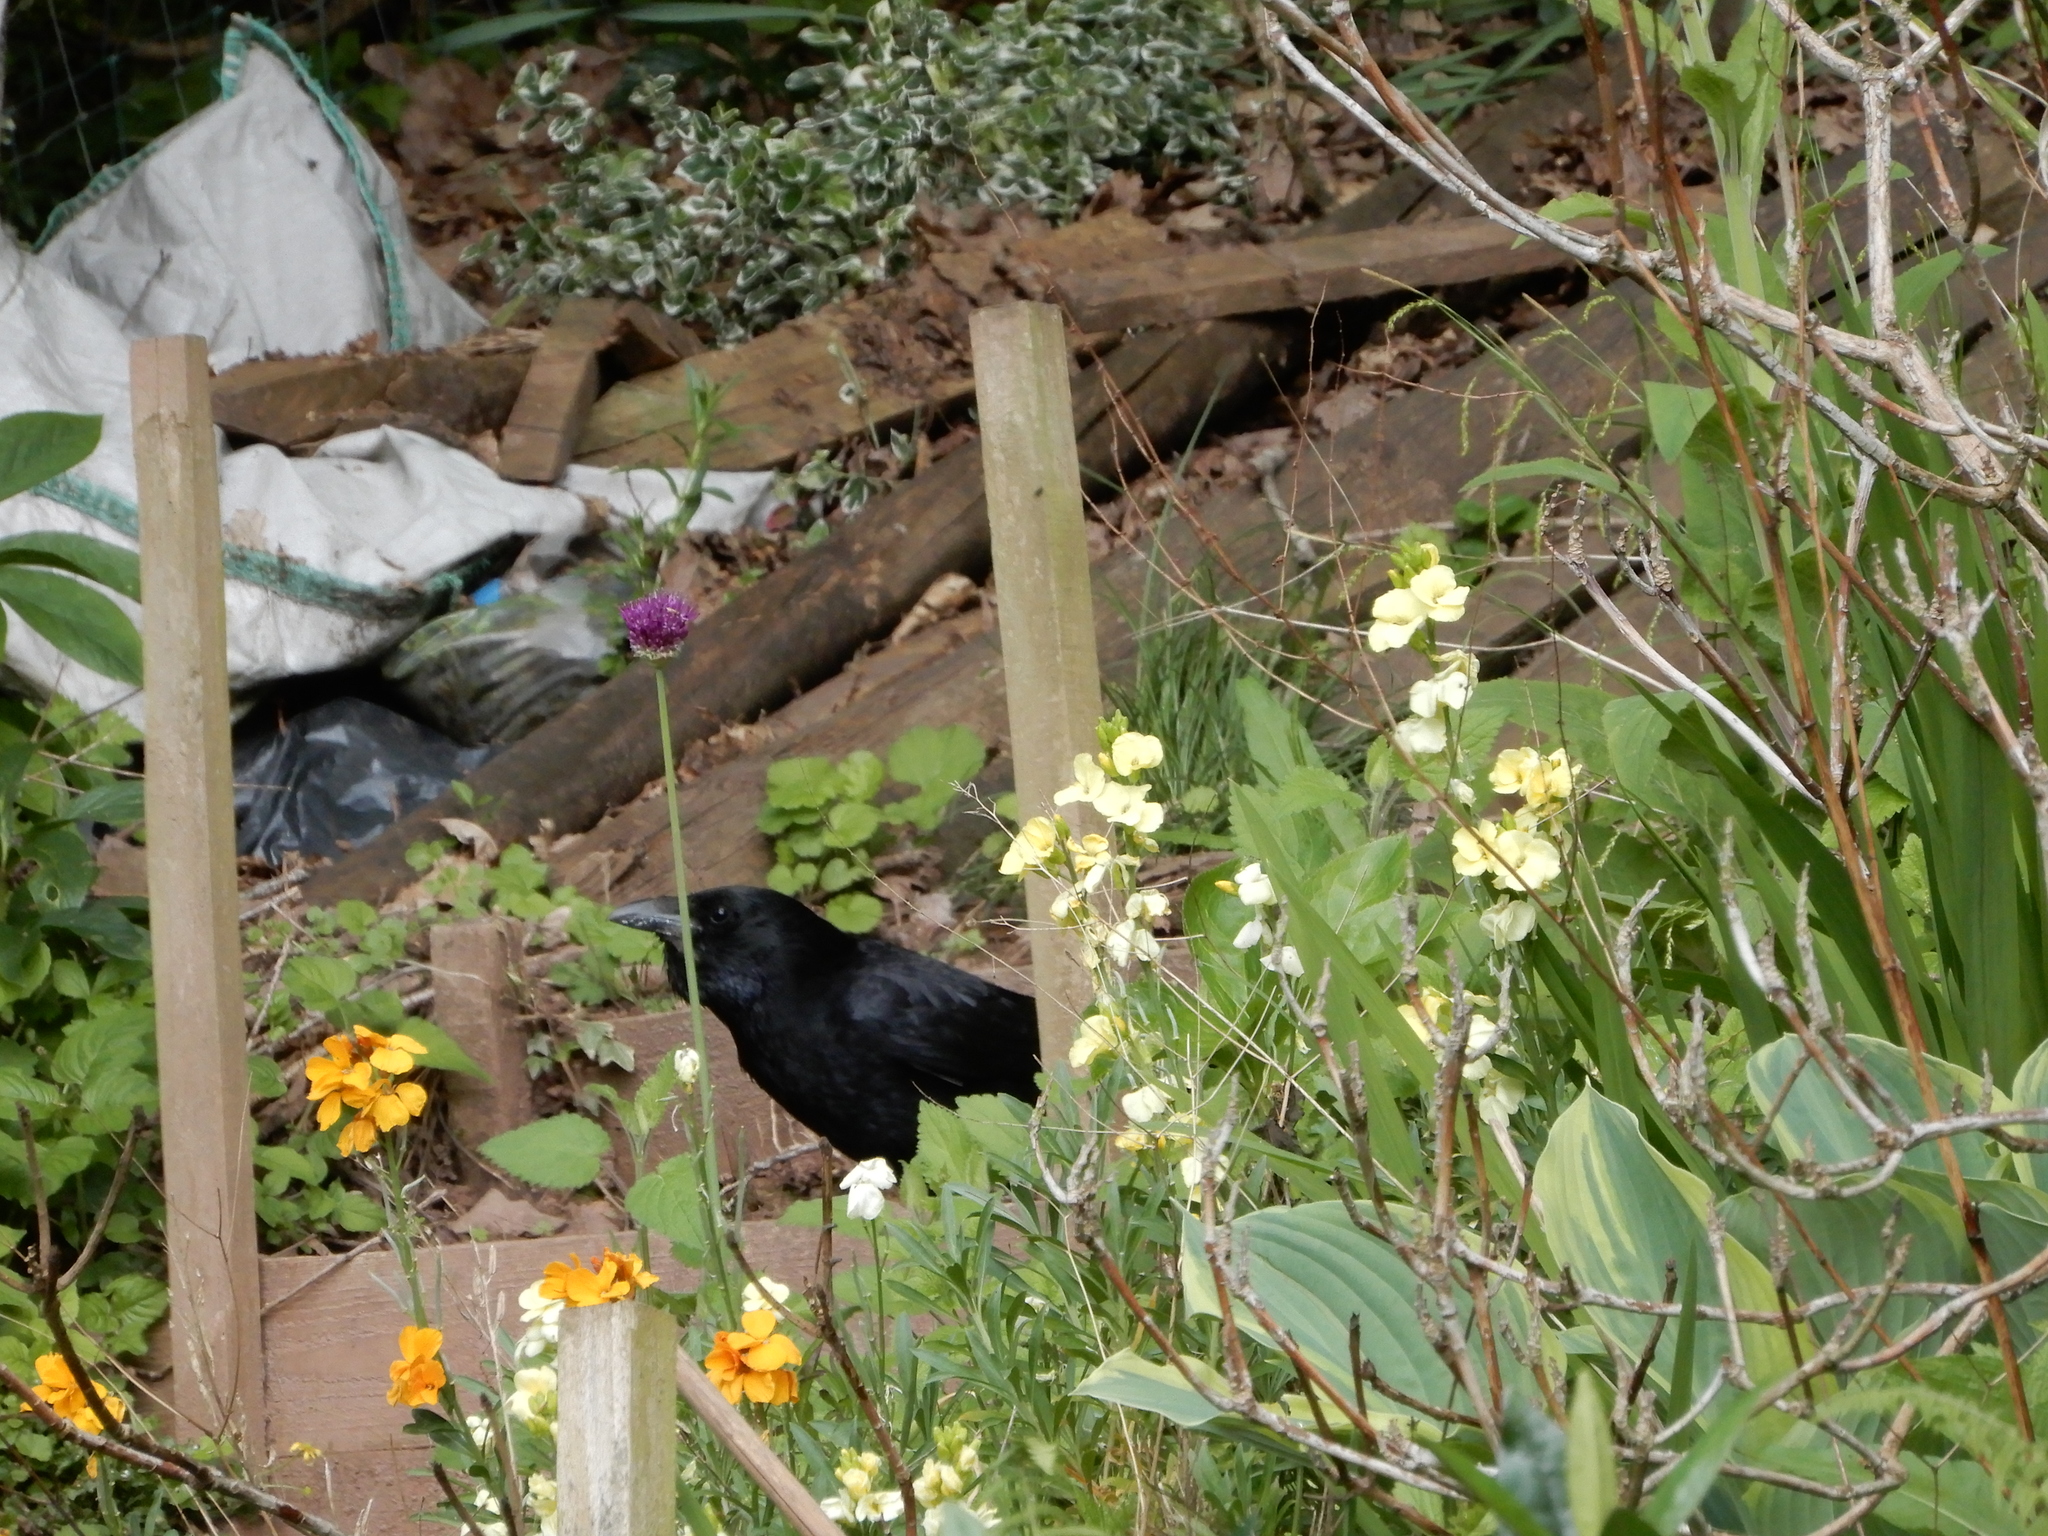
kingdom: Animalia
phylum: Chordata
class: Aves
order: Passeriformes
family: Corvidae
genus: Corvus
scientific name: Corvus corone
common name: Carrion crow
